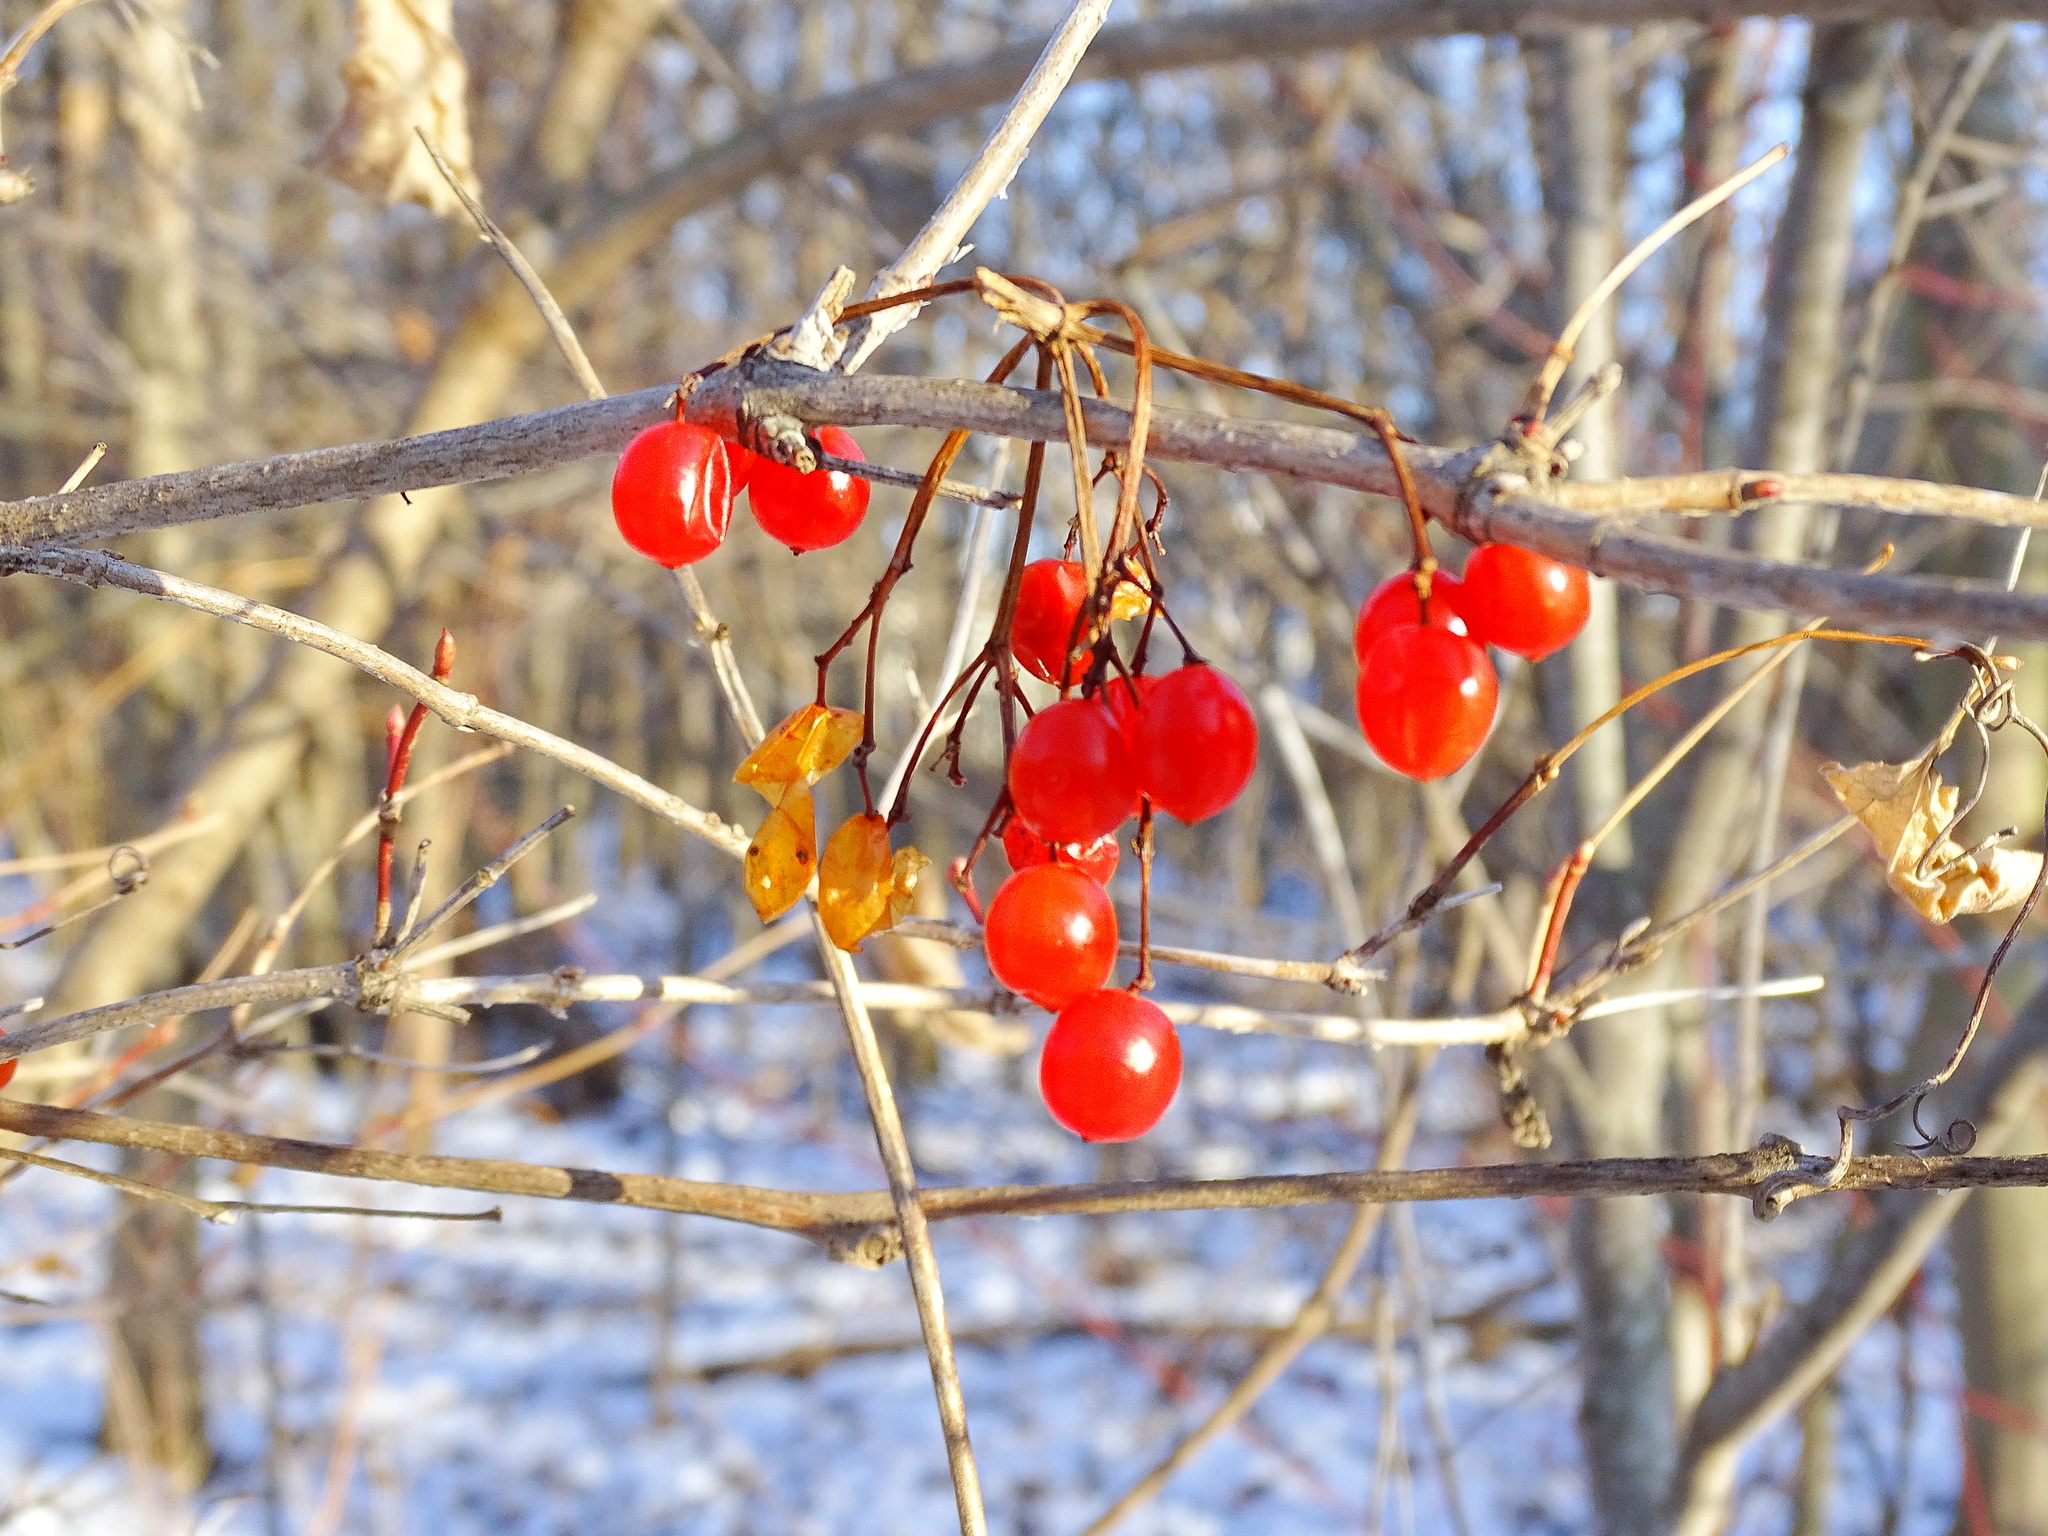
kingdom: Plantae
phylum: Tracheophyta
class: Magnoliopsida
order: Dipsacales
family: Viburnaceae
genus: Viburnum
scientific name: Viburnum opulus
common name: Guelder-rose
